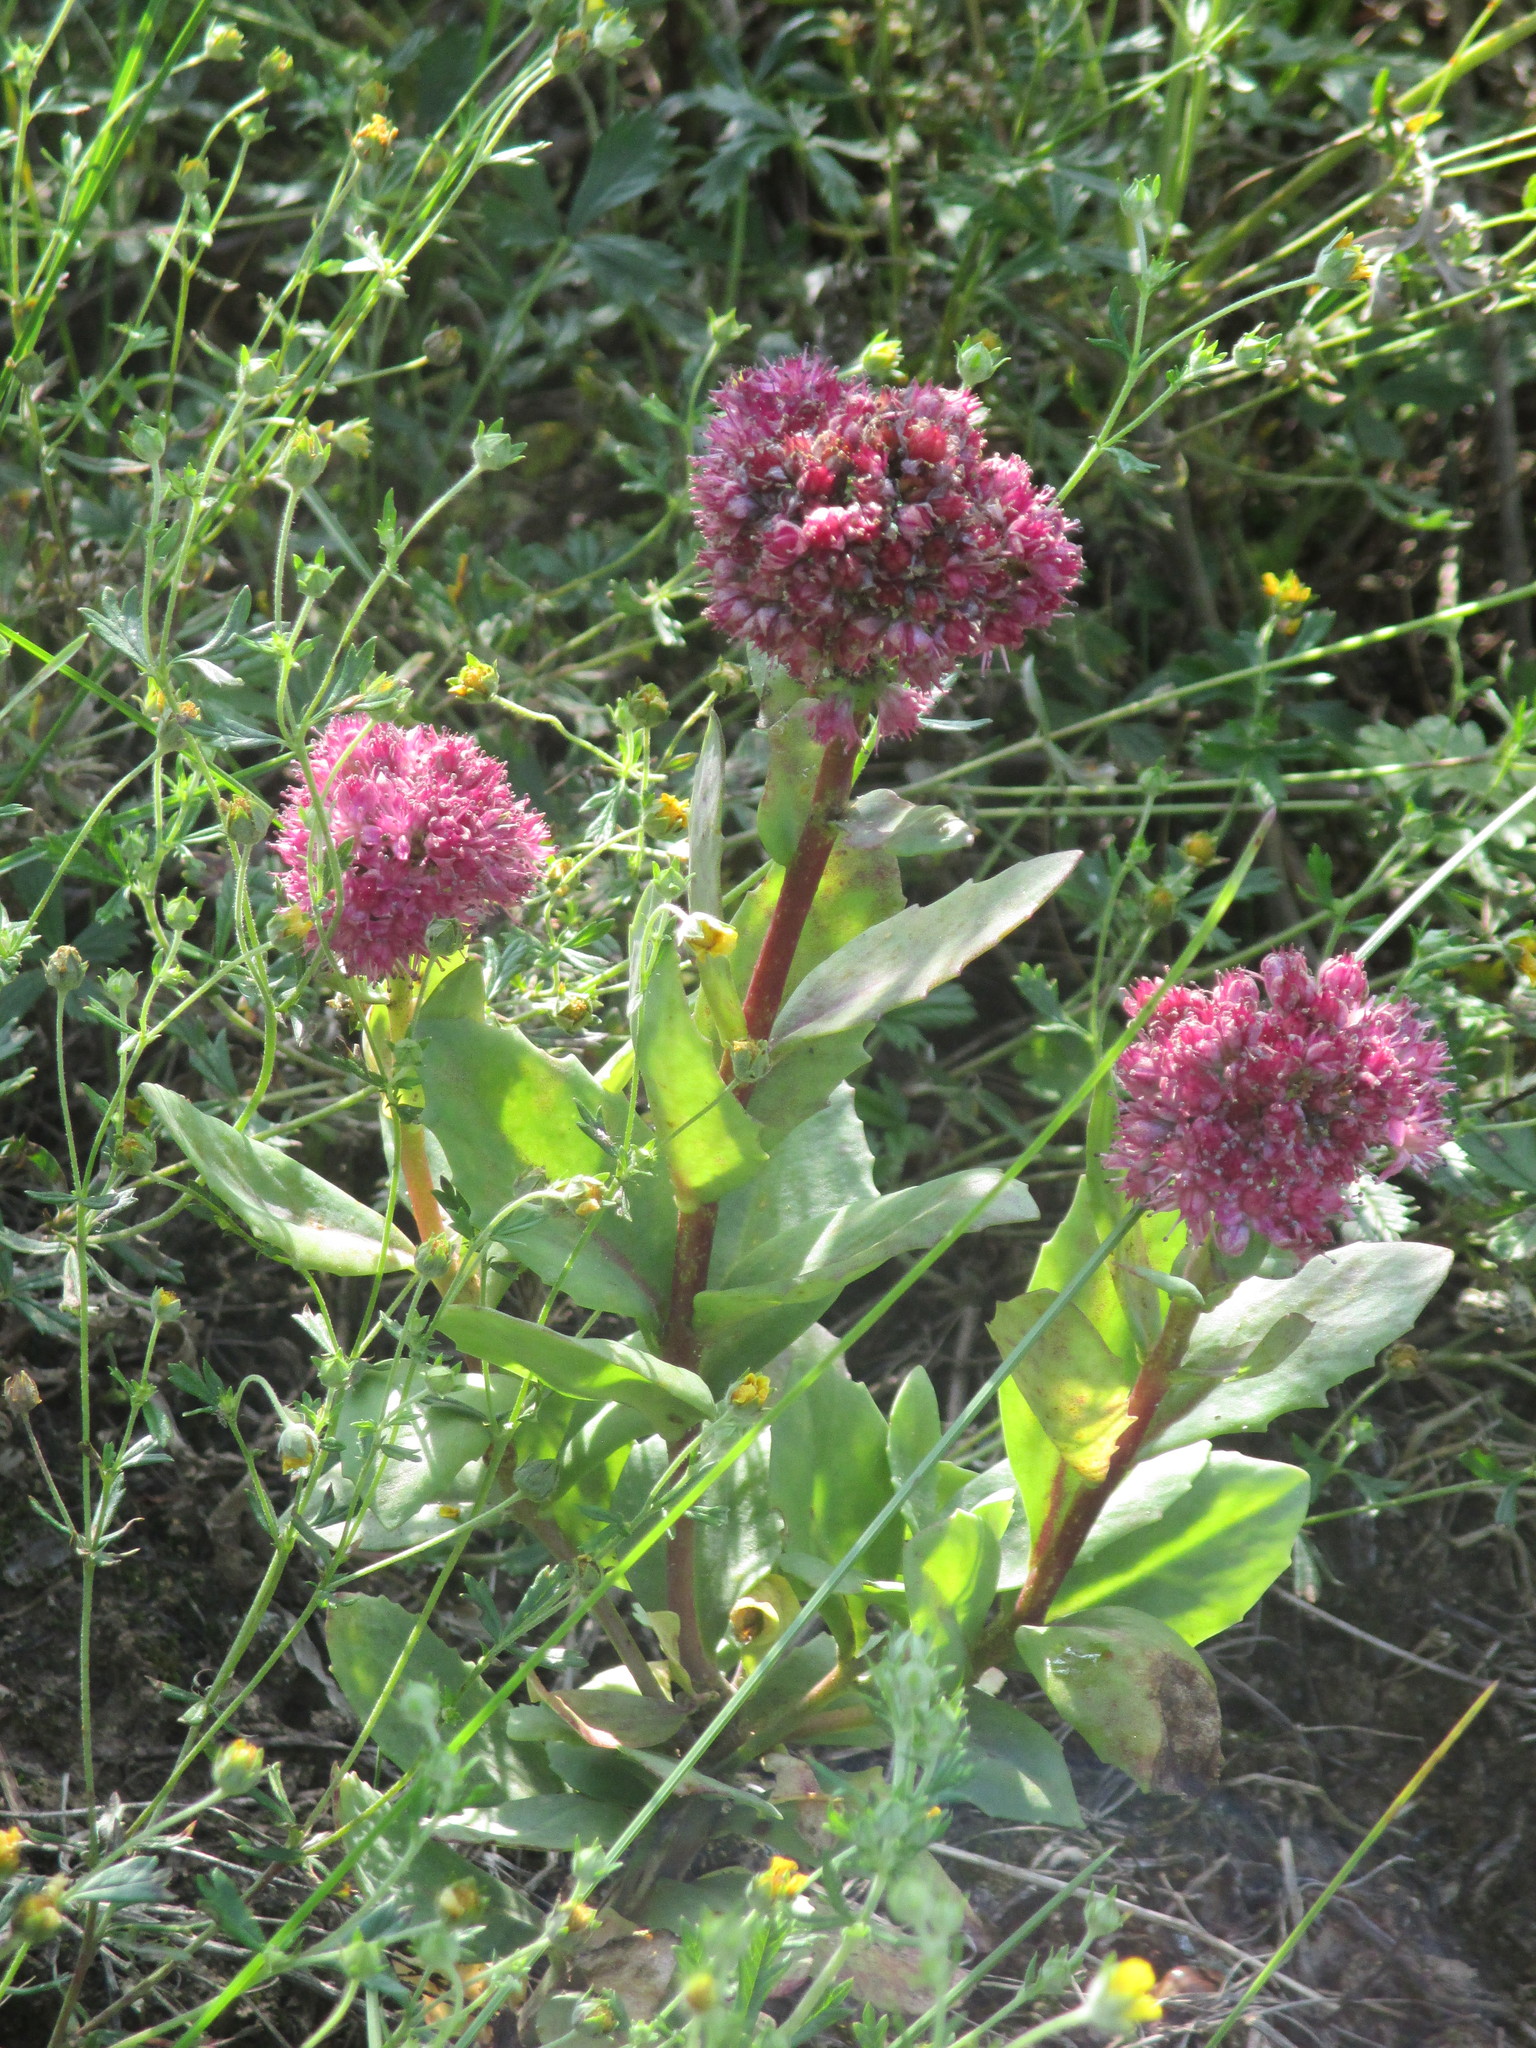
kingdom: Plantae
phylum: Tracheophyta
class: Magnoliopsida
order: Saxifragales
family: Crassulaceae
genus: Hylotelephium
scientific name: Hylotelephium telephium
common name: Live-forever
